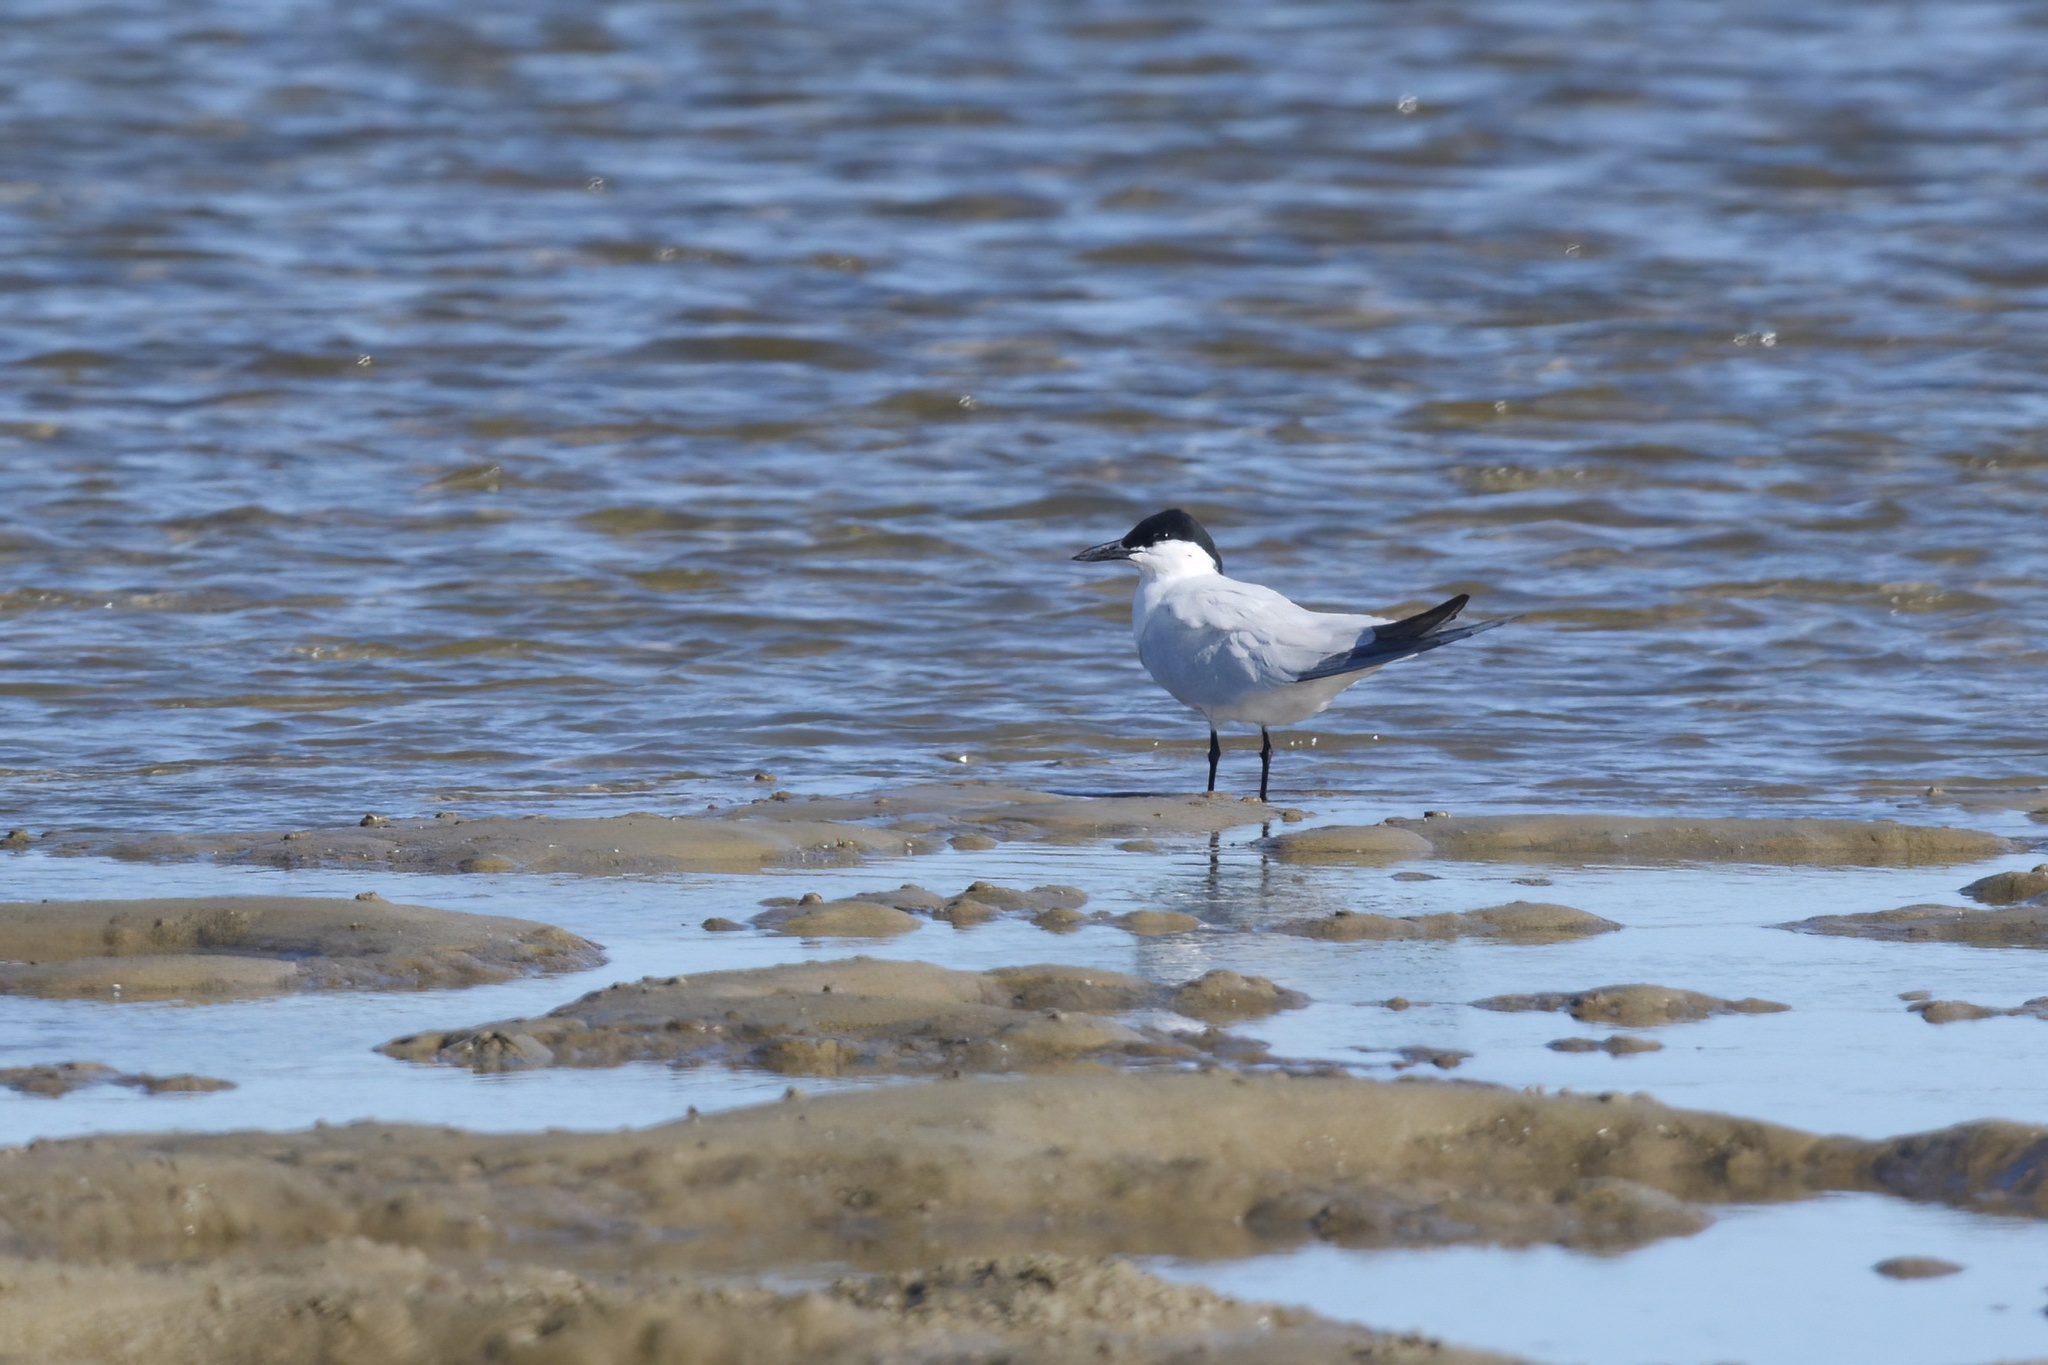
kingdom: Animalia
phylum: Chordata
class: Aves
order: Charadriiformes
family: Laridae
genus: Gelochelidon
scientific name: Gelochelidon macrotarsa
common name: Australian tern
